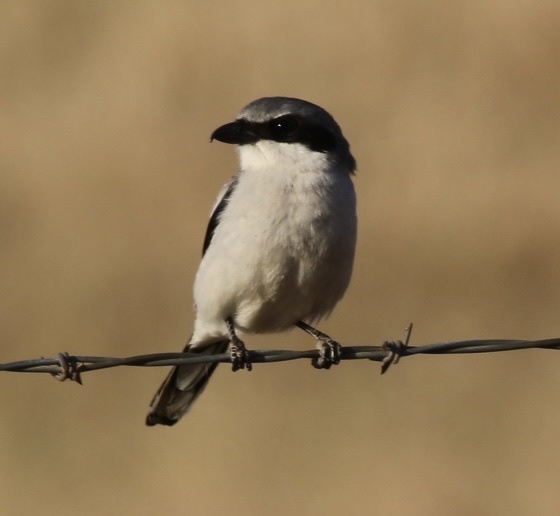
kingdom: Animalia
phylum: Chordata
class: Aves
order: Passeriformes
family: Laniidae
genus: Lanius
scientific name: Lanius ludovicianus
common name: Loggerhead shrike
